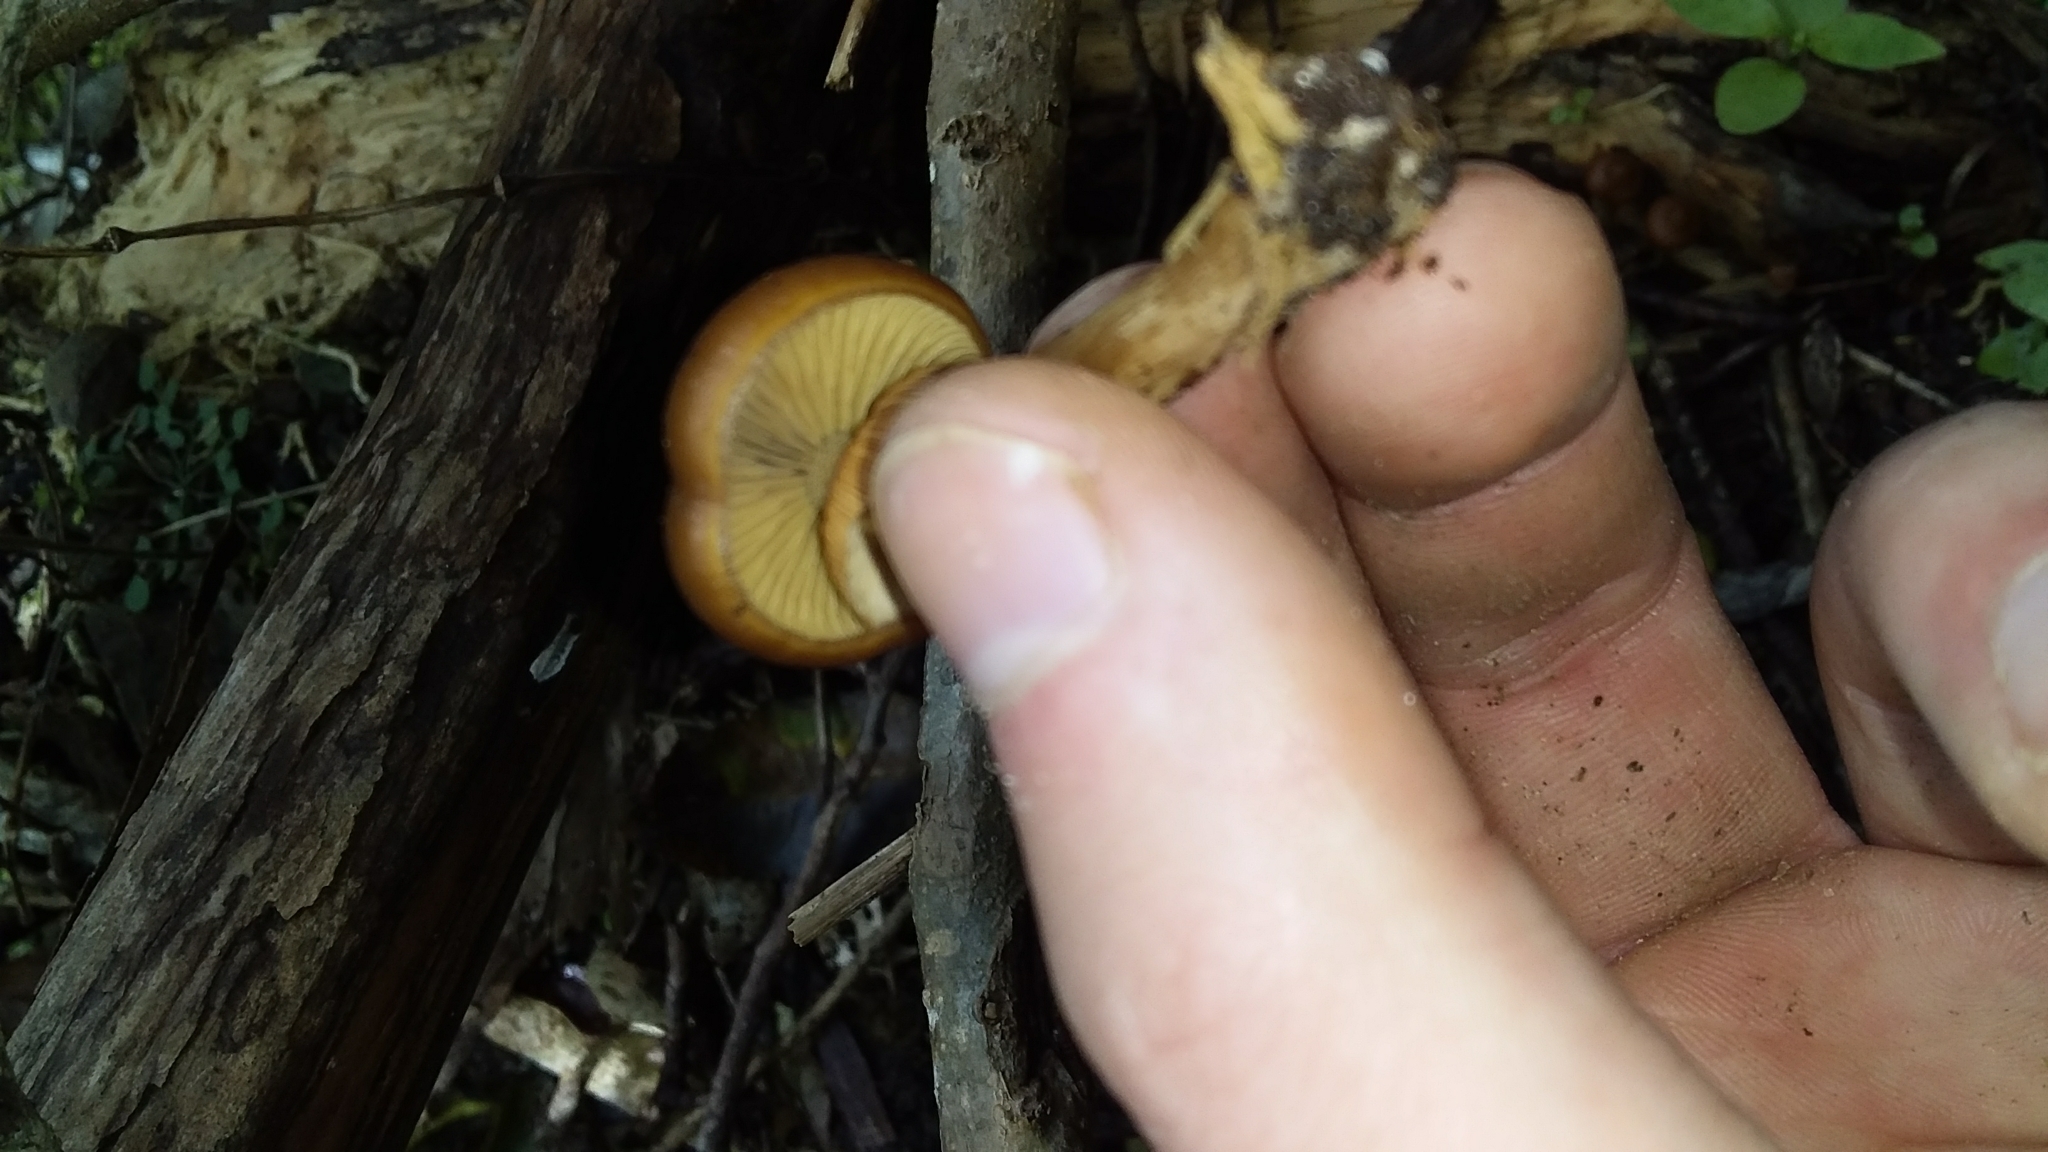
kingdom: Fungi
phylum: Basidiomycota
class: Agaricomycetes
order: Agaricales
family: Hymenogastraceae
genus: Galerina
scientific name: Galerina patagonica
